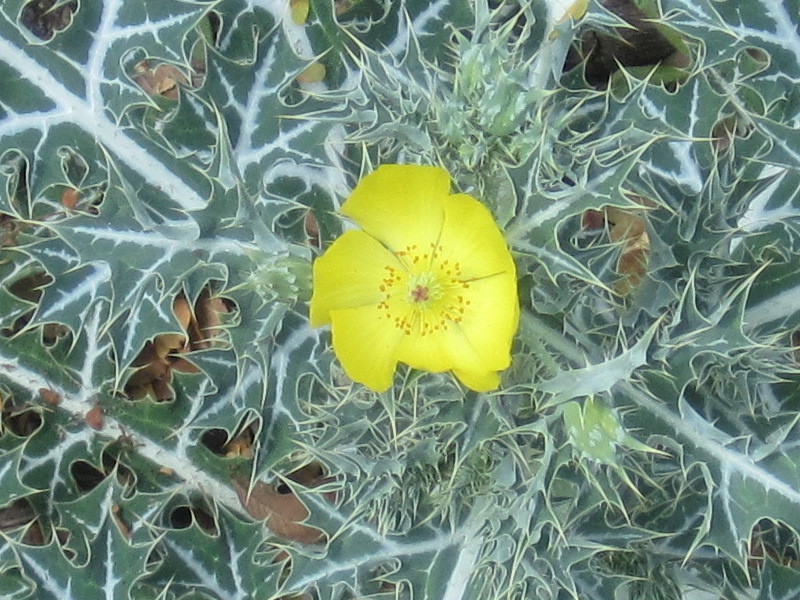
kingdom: Plantae
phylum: Tracheophyta
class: Magnoliopsida
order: Ranunculales
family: Papaveraceae
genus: Argemone
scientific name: Argemone mexicana
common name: Mexican poppy
